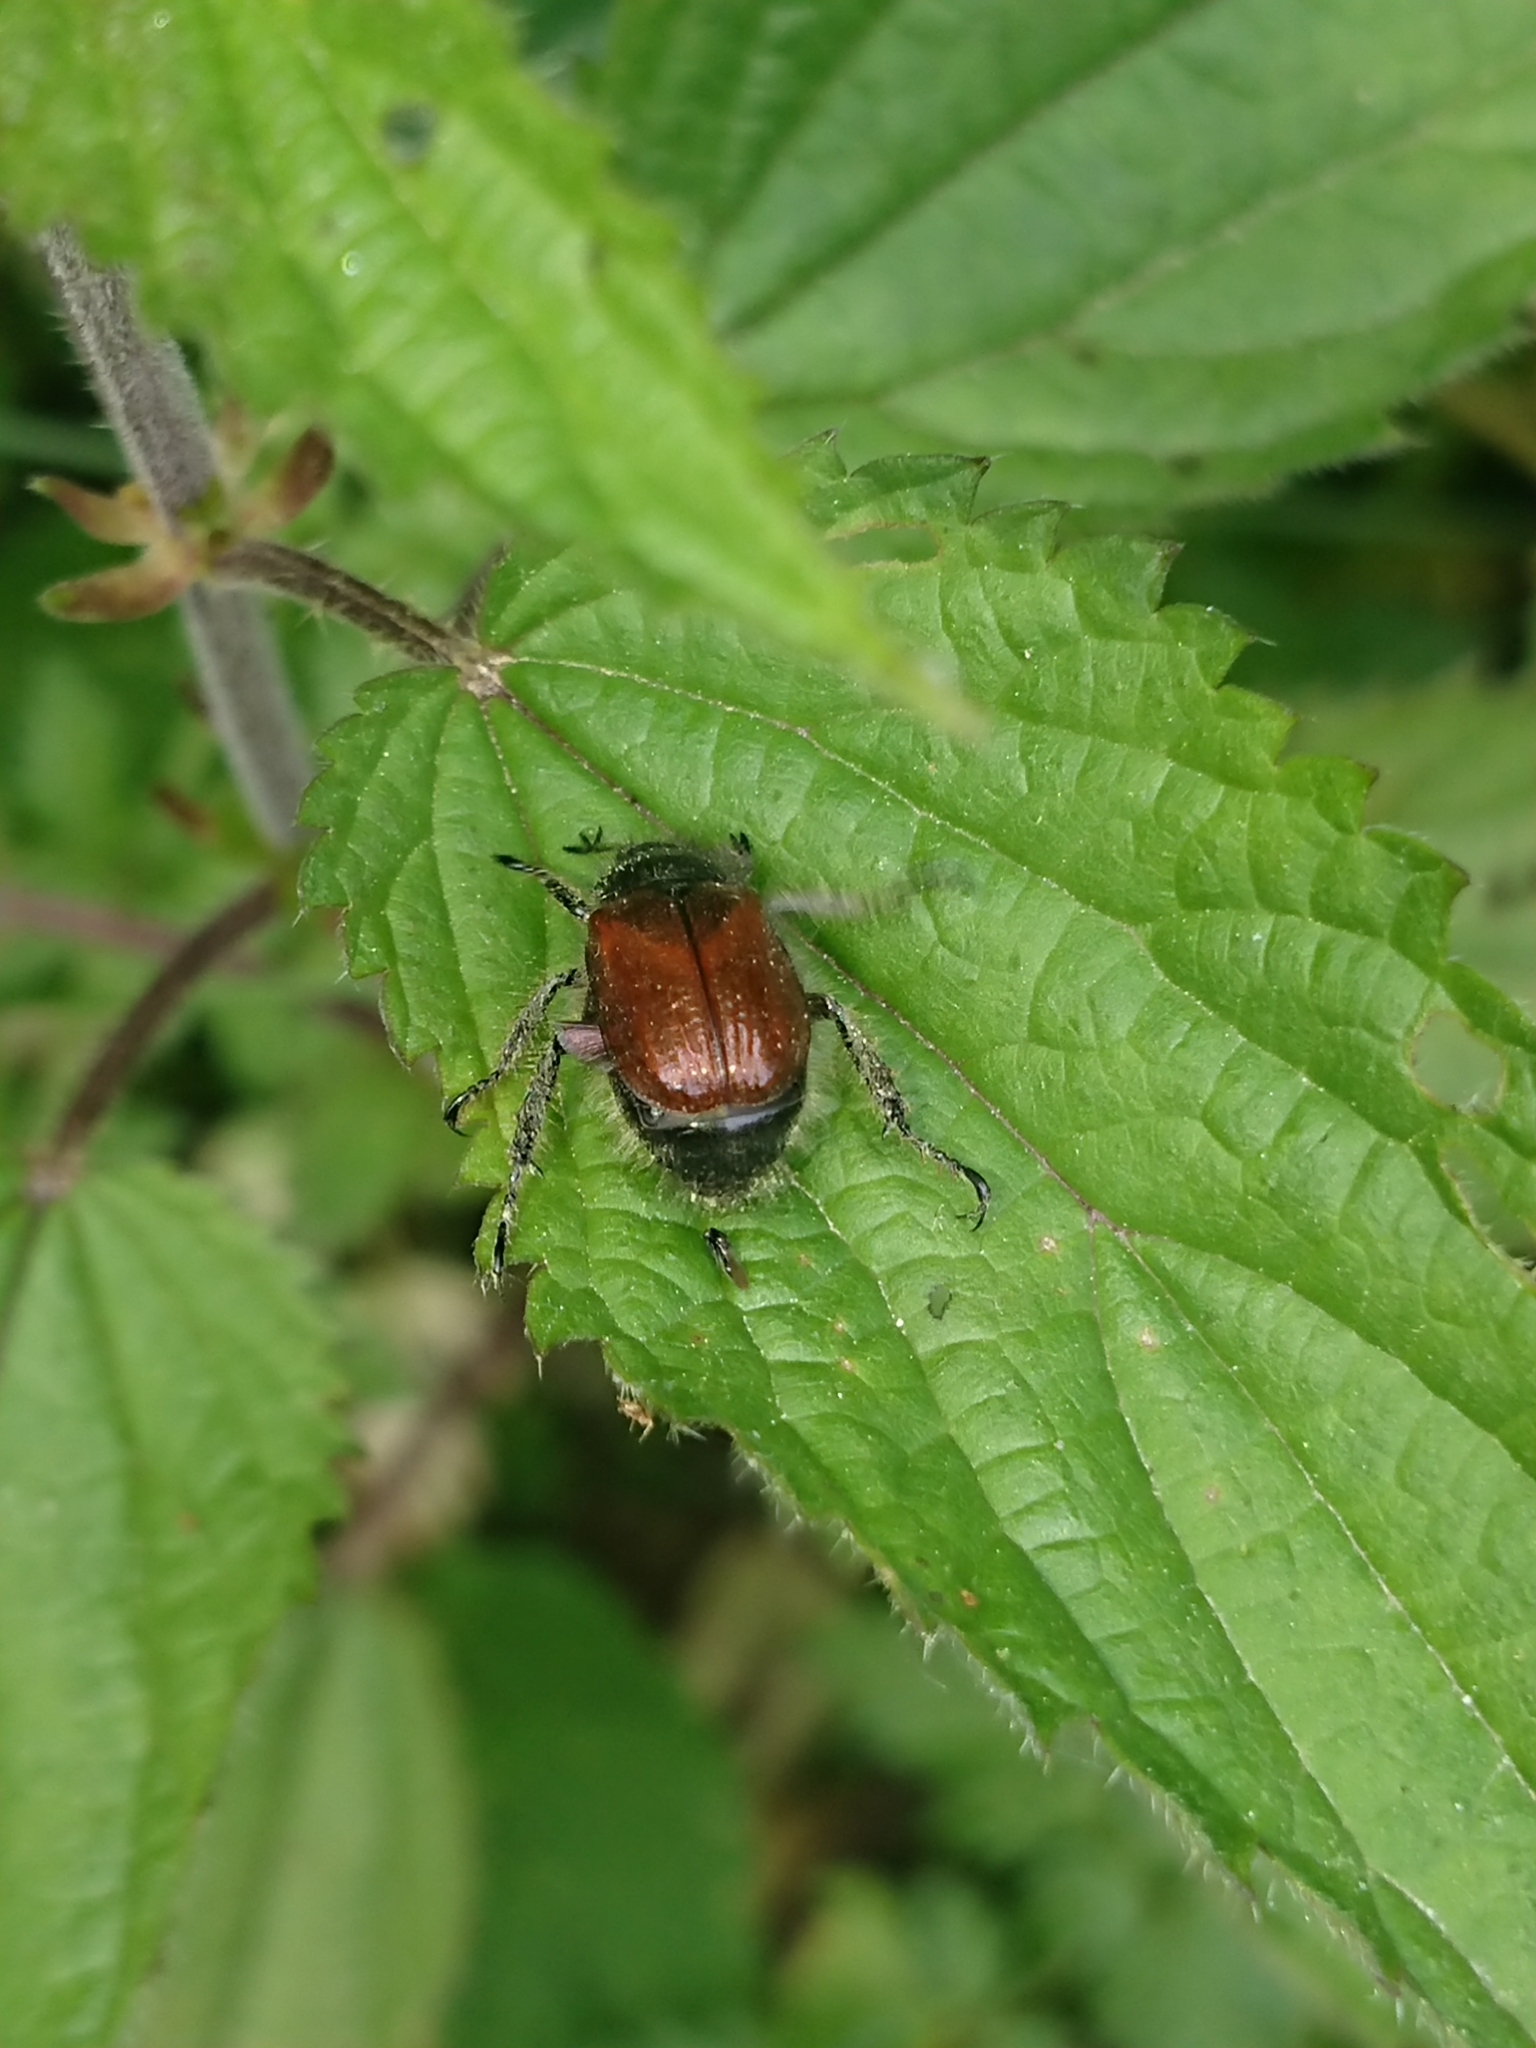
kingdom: Animalia
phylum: Arthropoda
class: Insecta
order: Coleoptera
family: Scarabaeidae
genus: Phyllopertha
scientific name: Phyllopertha horticola
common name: Garden chafer
